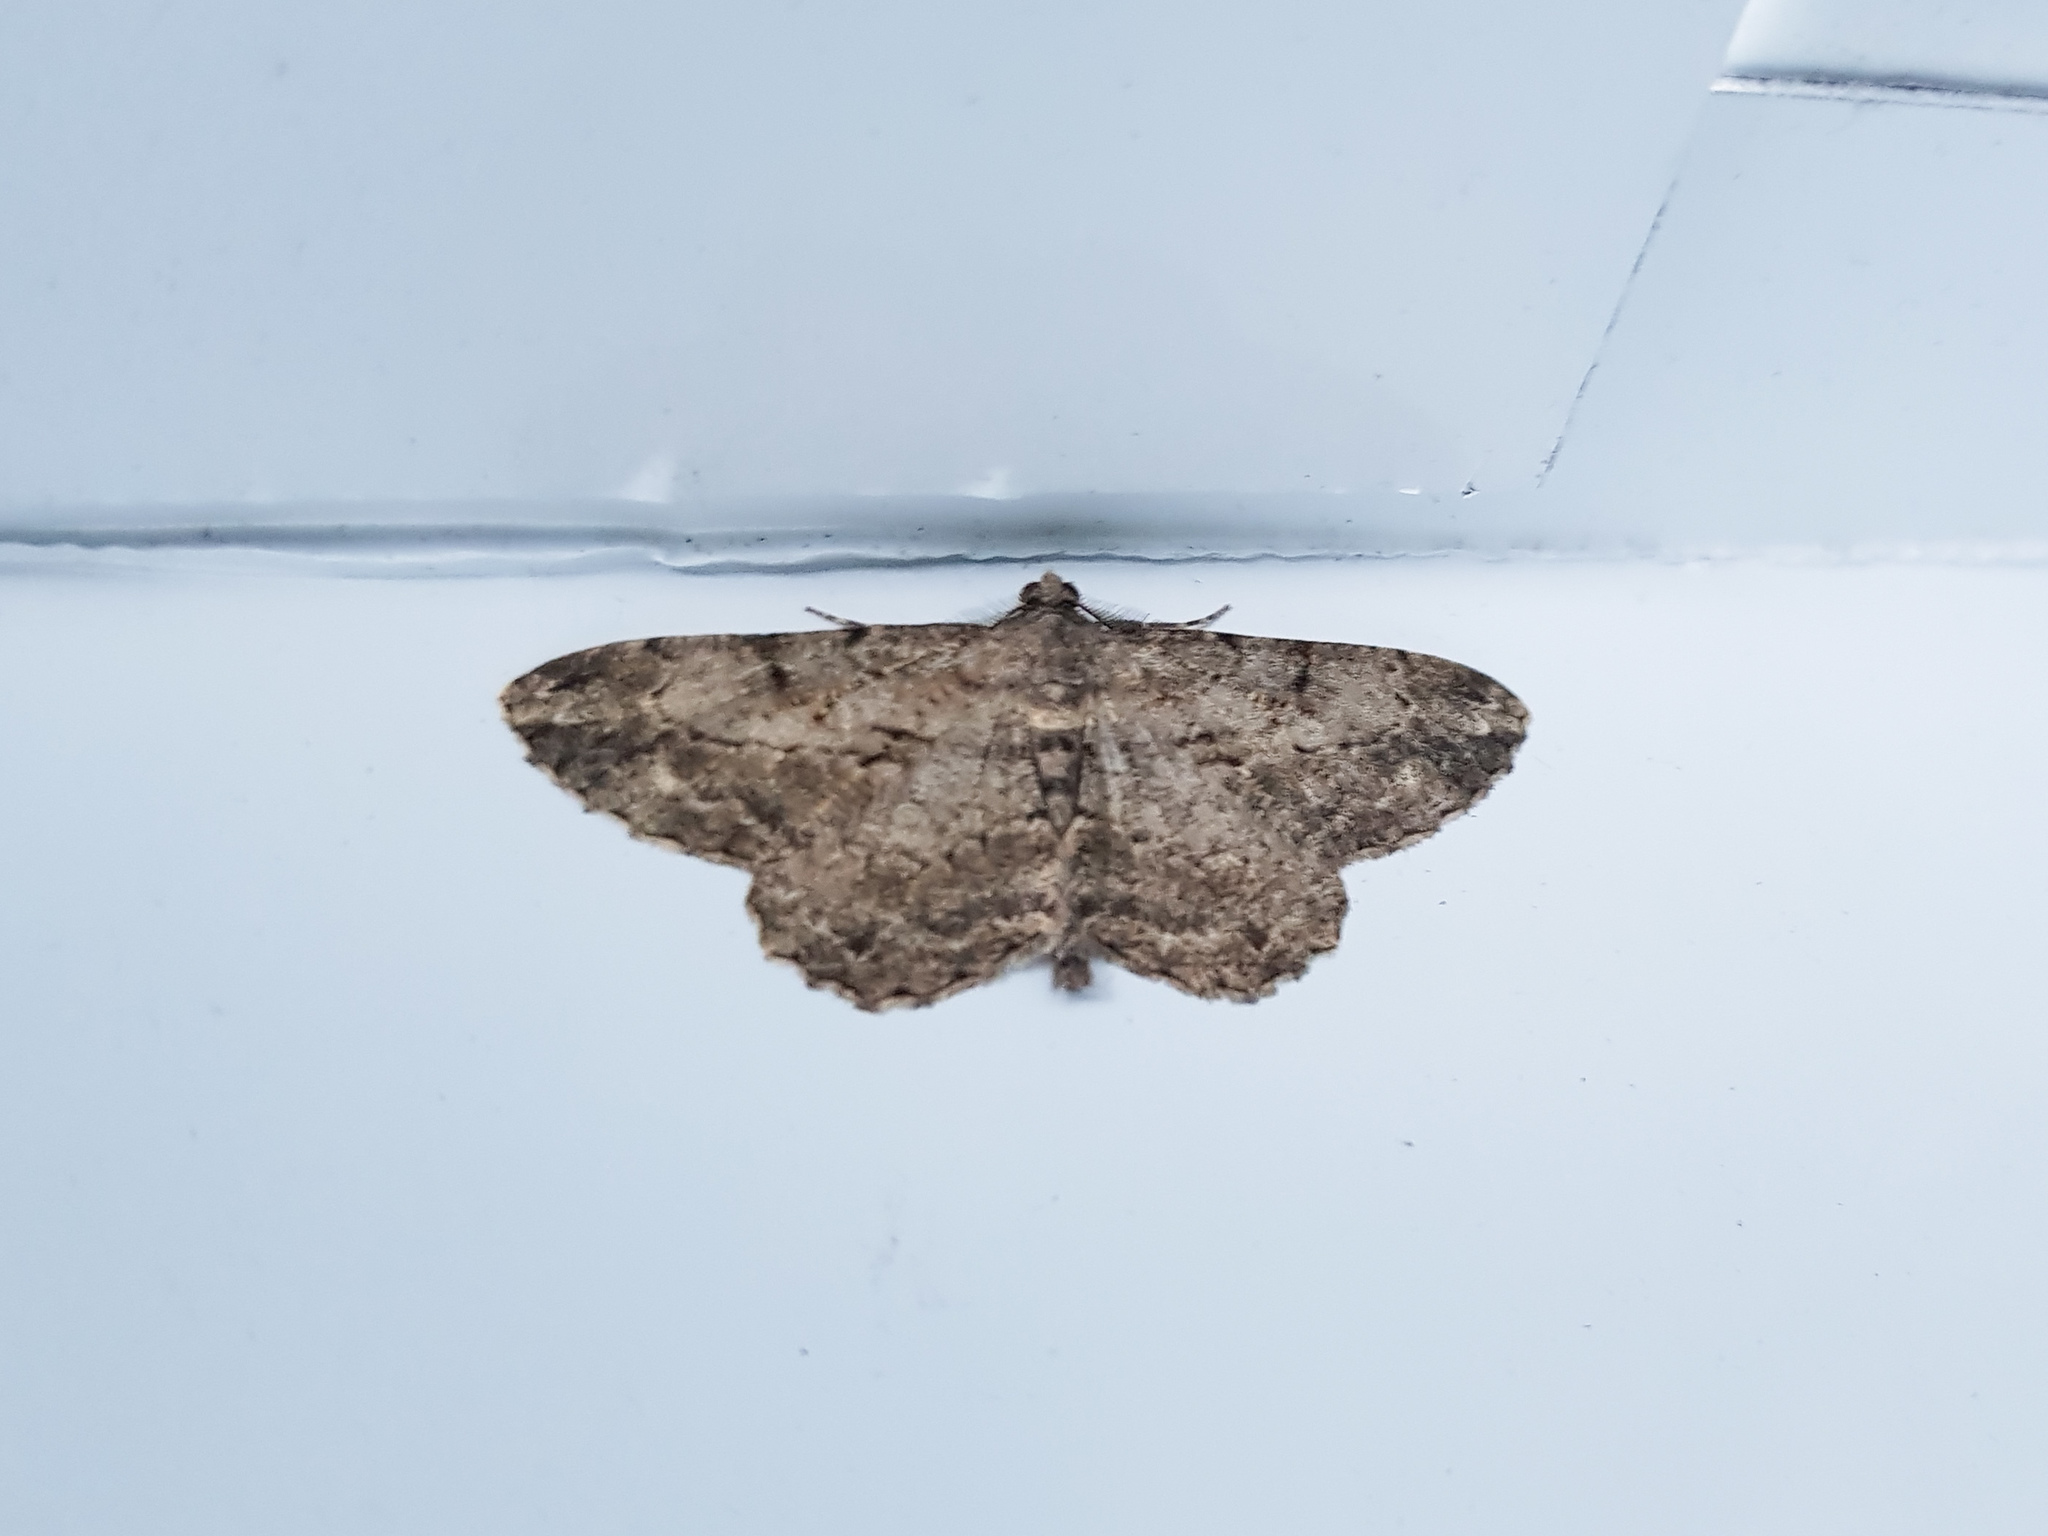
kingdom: Animalia
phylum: Arthropoda
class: Insecta
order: Lepidoptera
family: Geometridae
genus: Peribatodes
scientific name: Peribatodes rhomboidaria
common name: Willow beauty
